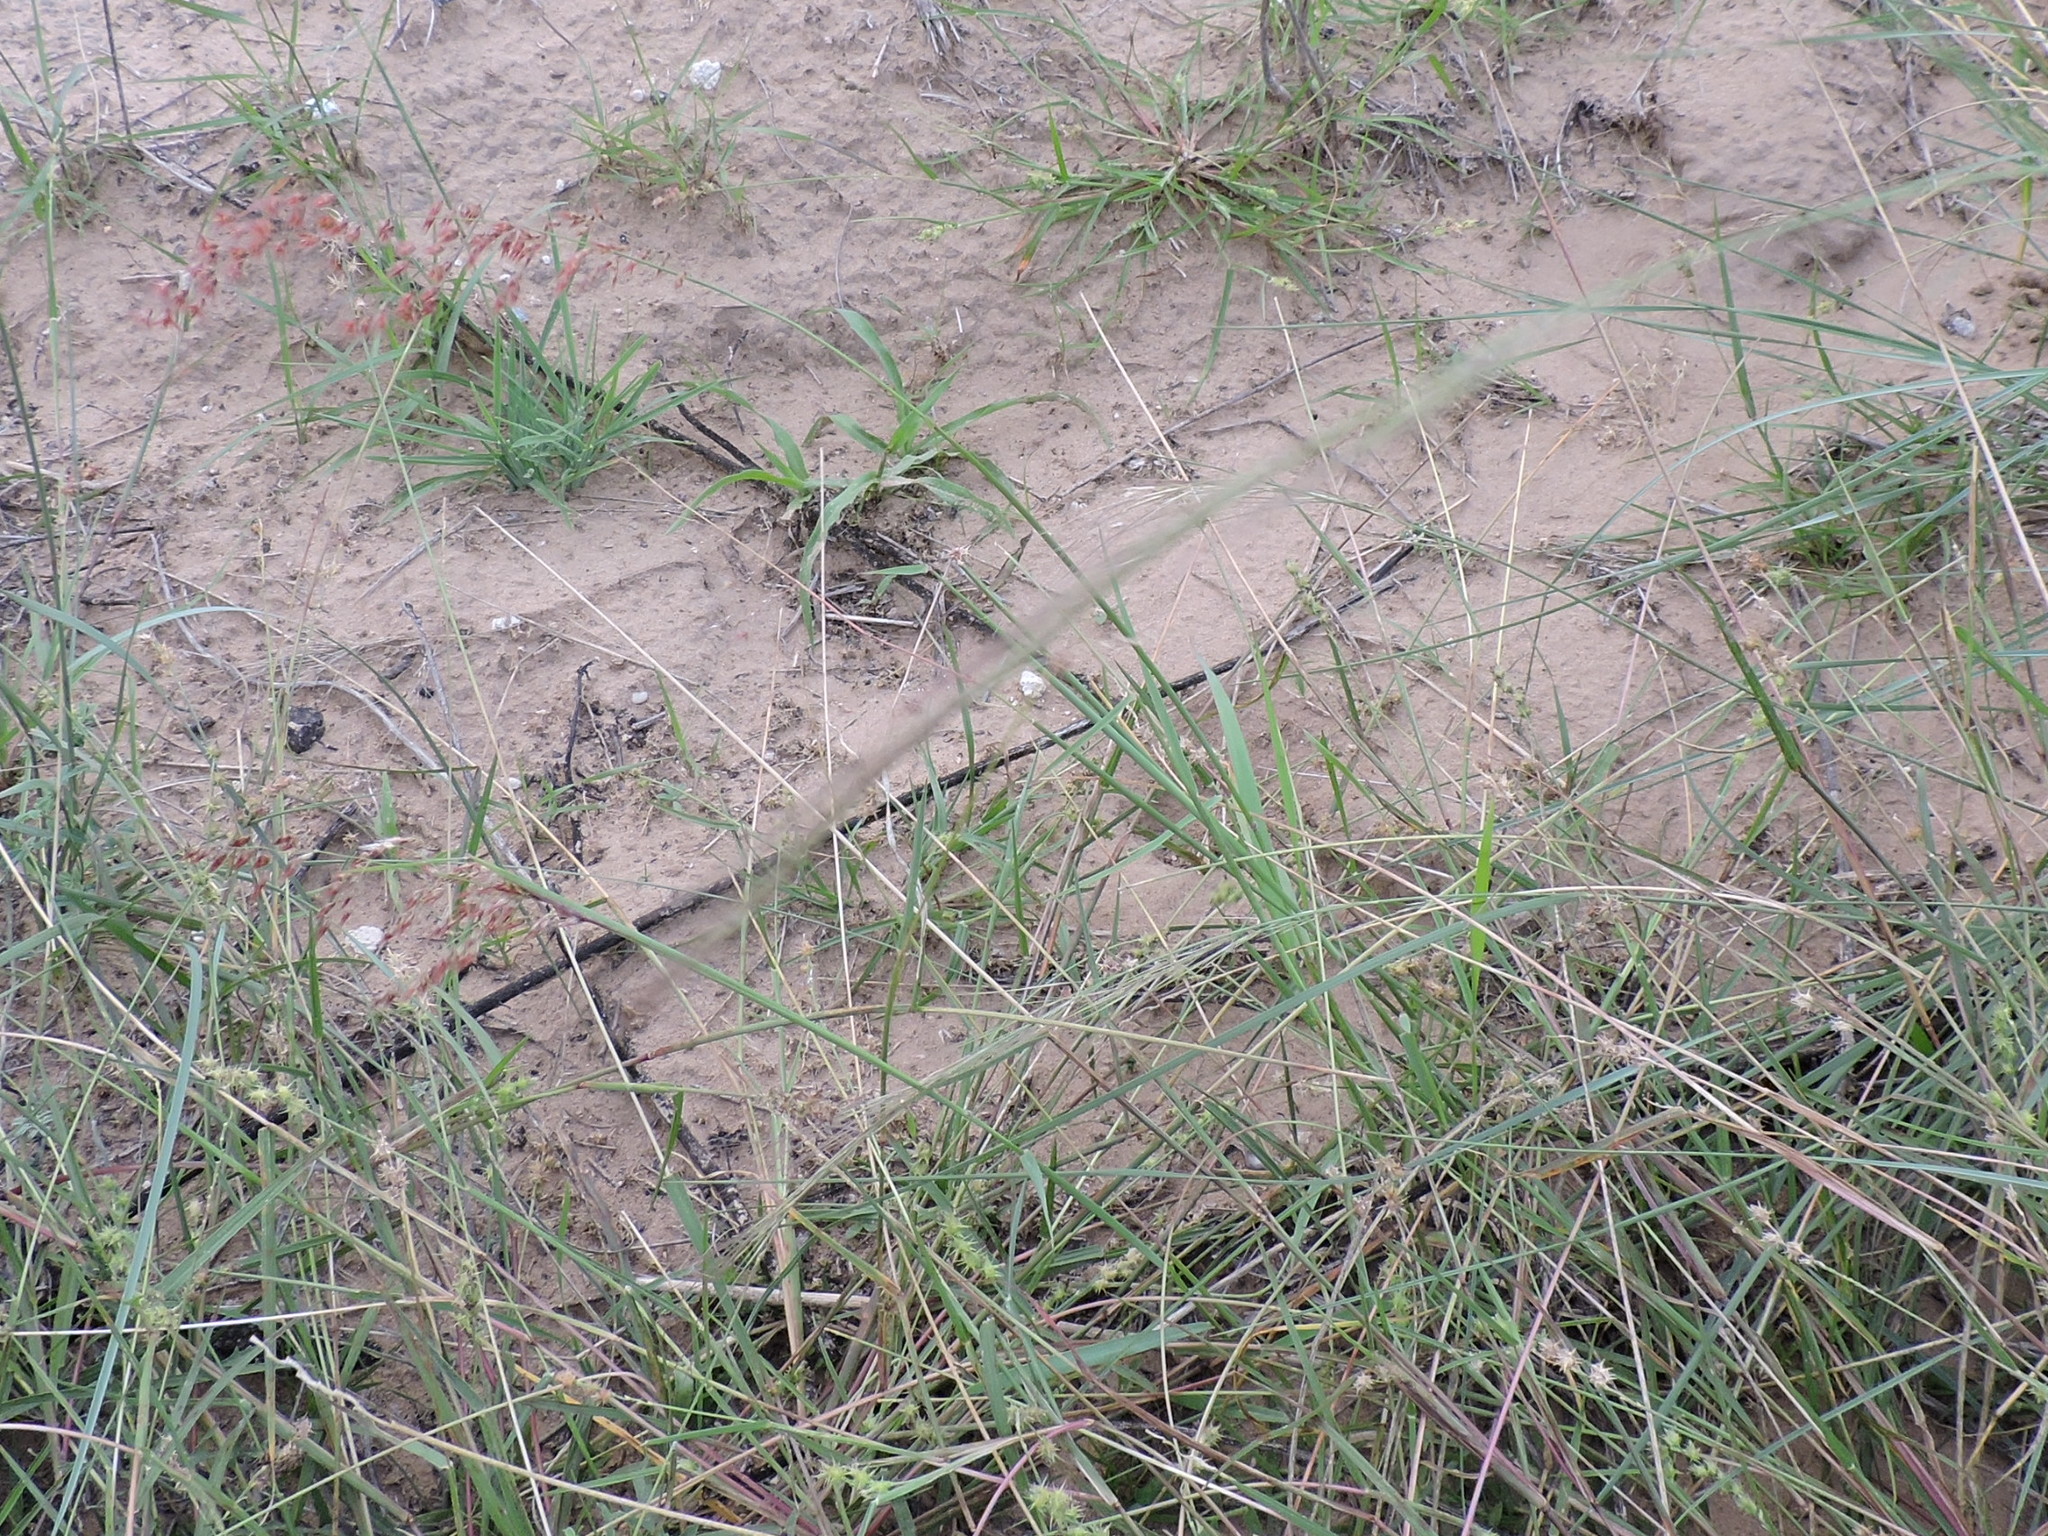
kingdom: Plantae
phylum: Tracheophyta
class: Liliopsida
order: Poales
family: Poaceae
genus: Melinis
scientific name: Melinis repens
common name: Rose natal grass
